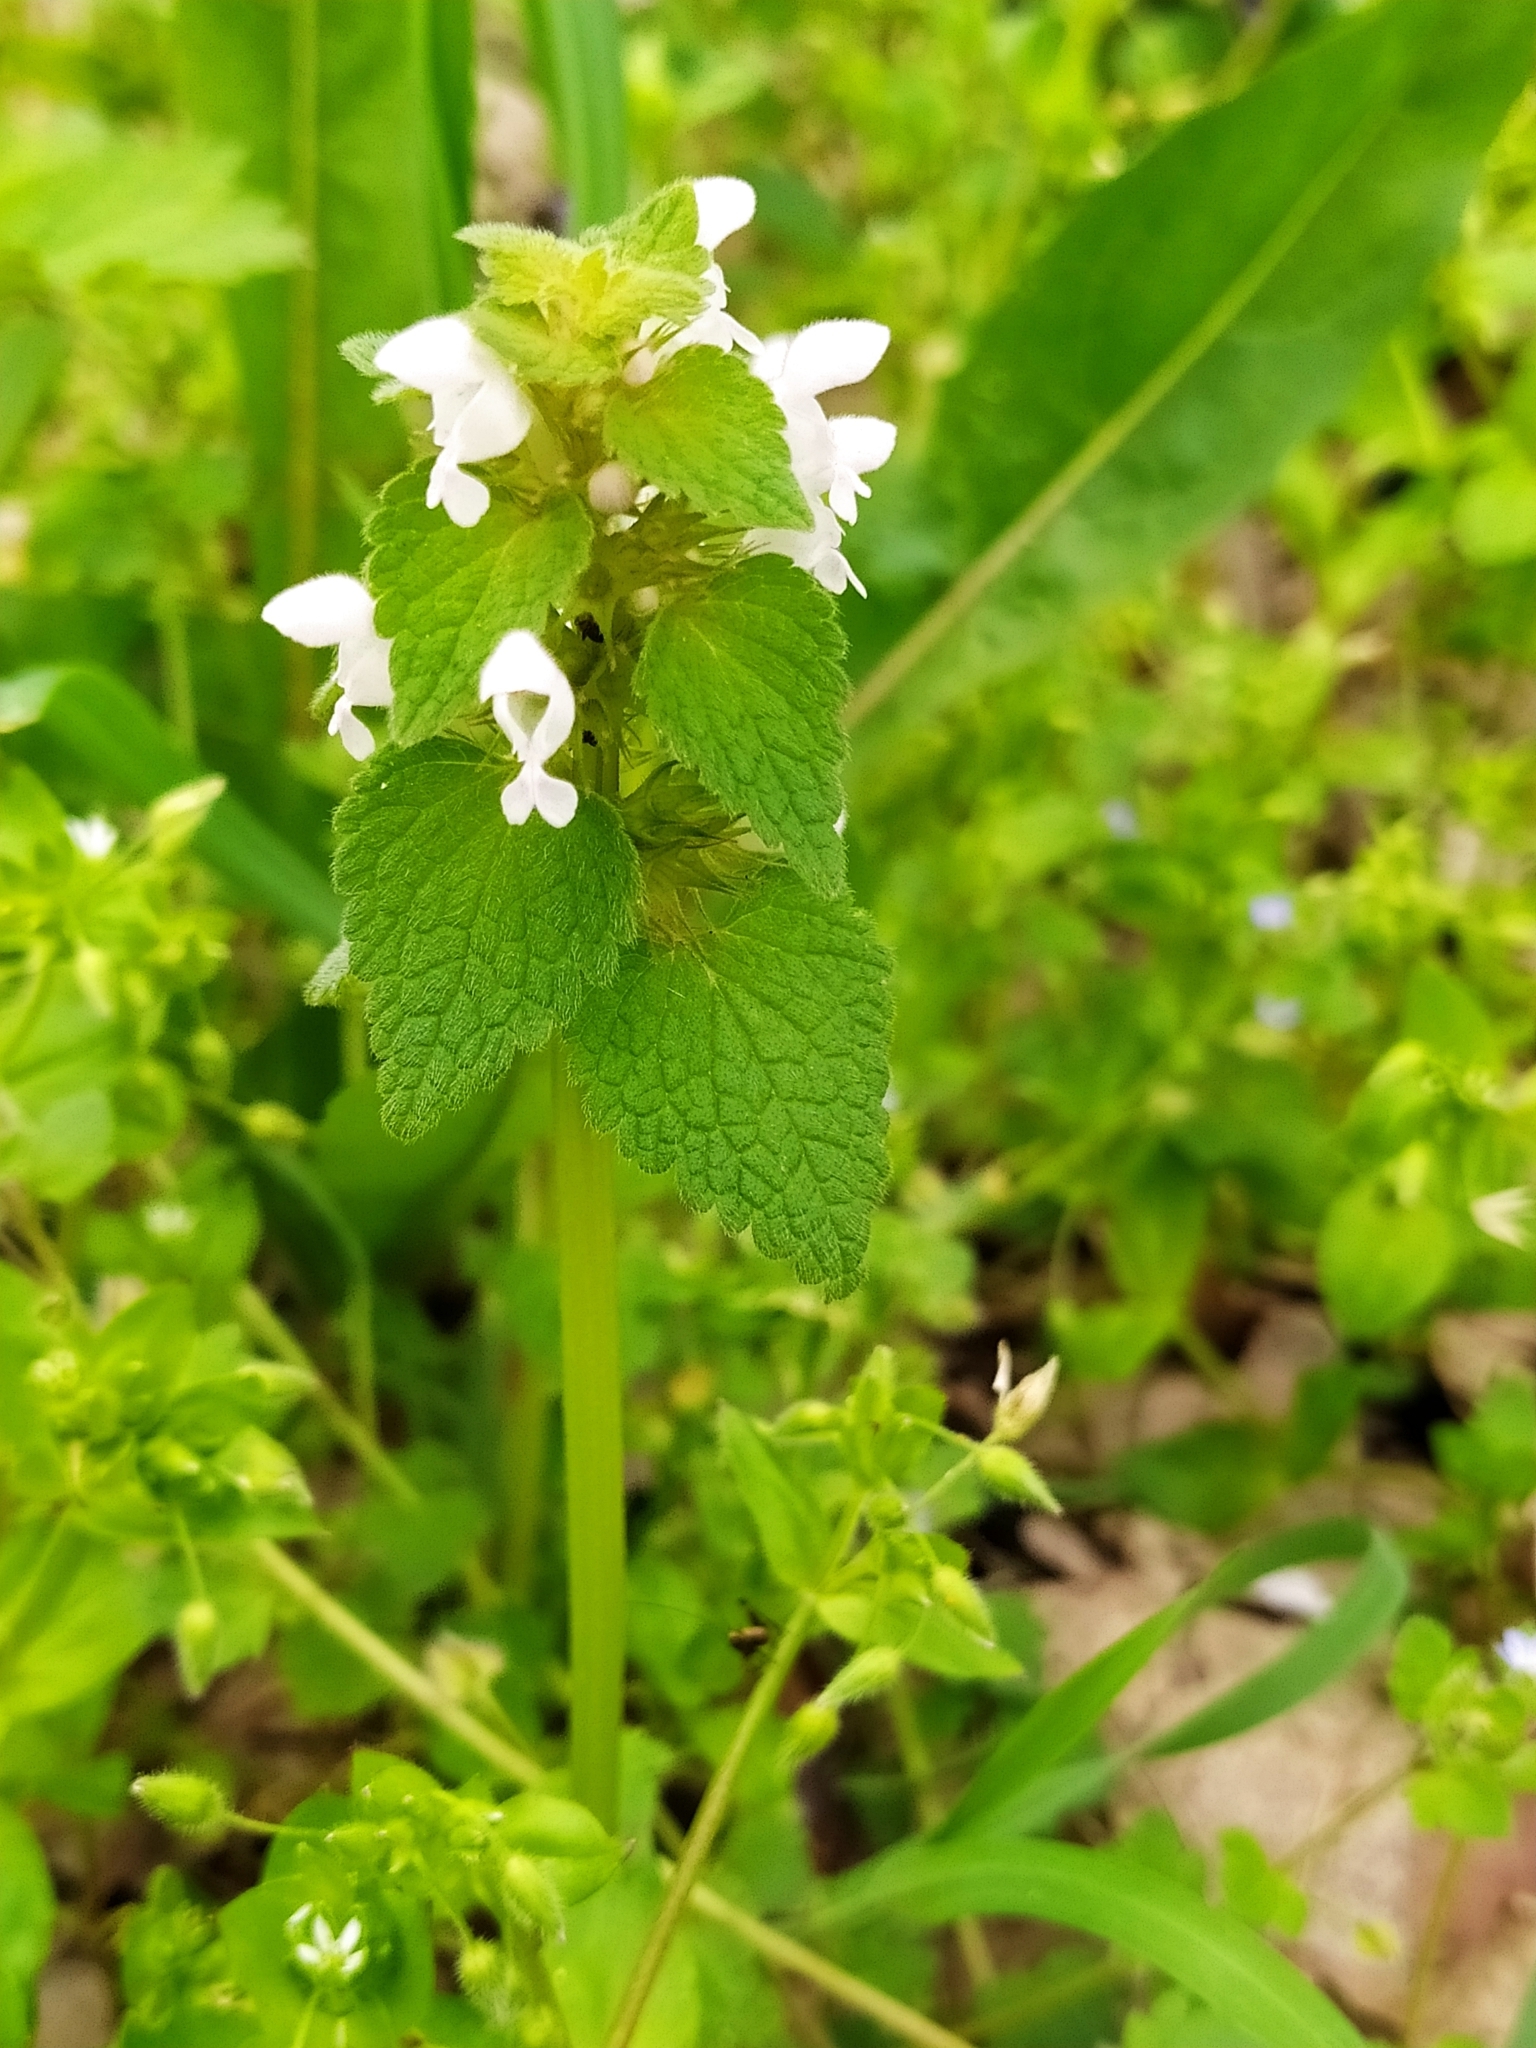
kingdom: Plantae
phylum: Tracheophyta
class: Magnoliopsida
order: Lamiales
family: Lamiaceae
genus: Lamium
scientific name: Lamium purpureum
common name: Red dead-nettle
